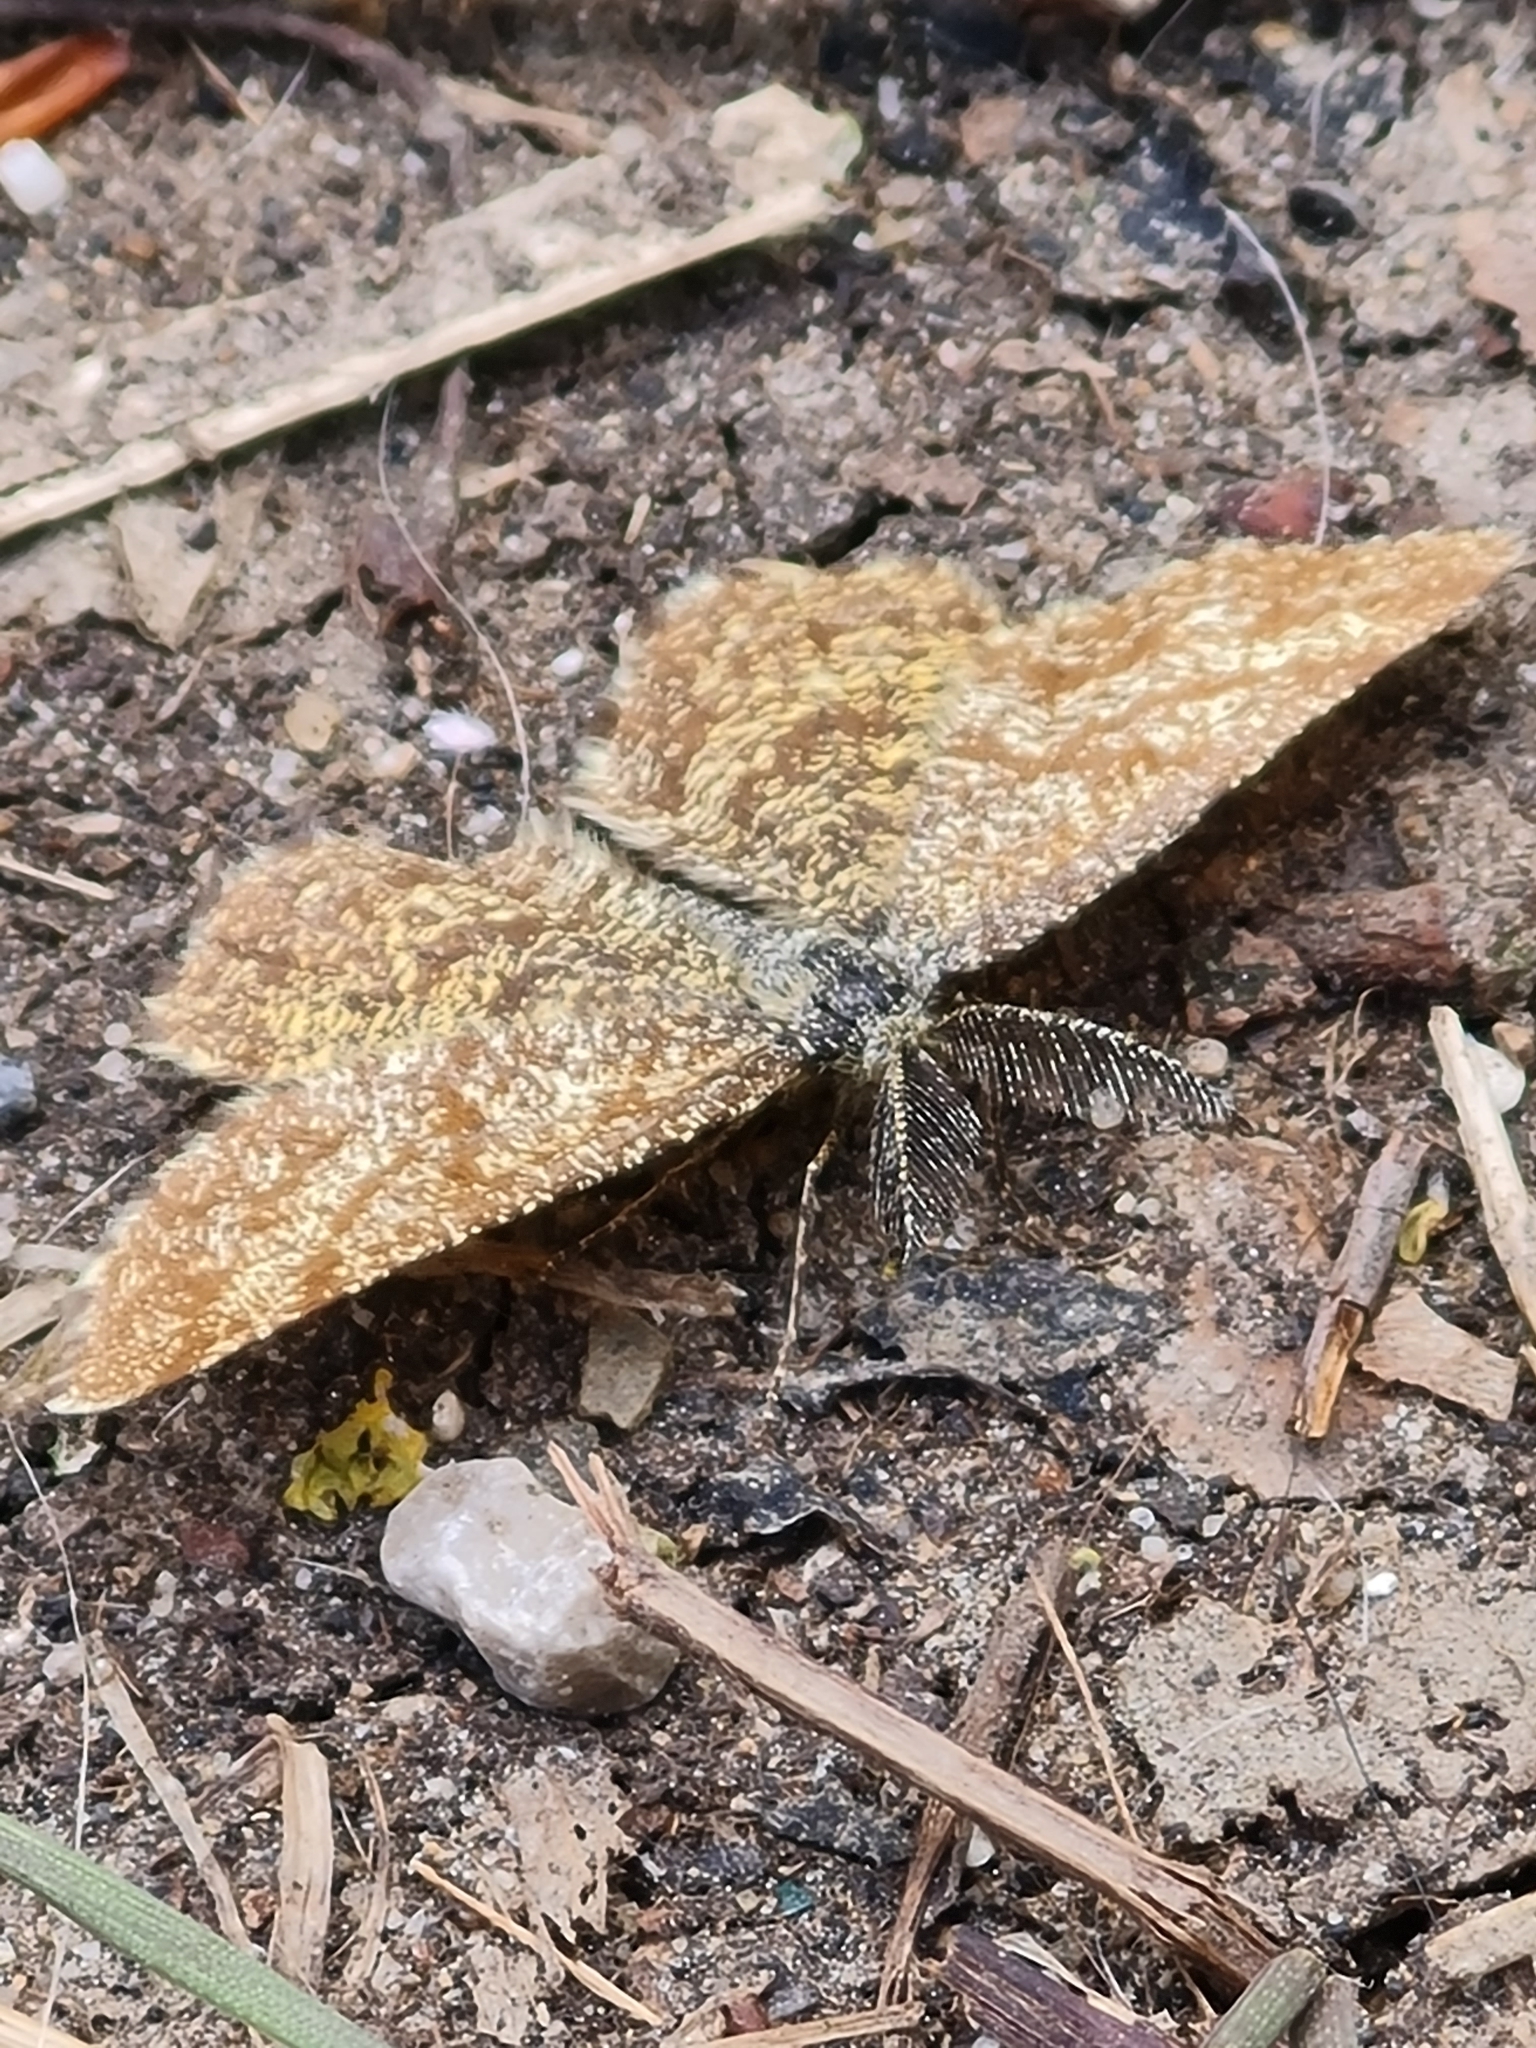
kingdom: Animalia
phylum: Arthropoda
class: Insecta
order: Lepidoptera
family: Geometridae
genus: Ematurga
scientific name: Ematurga atomaria
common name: Common heath
